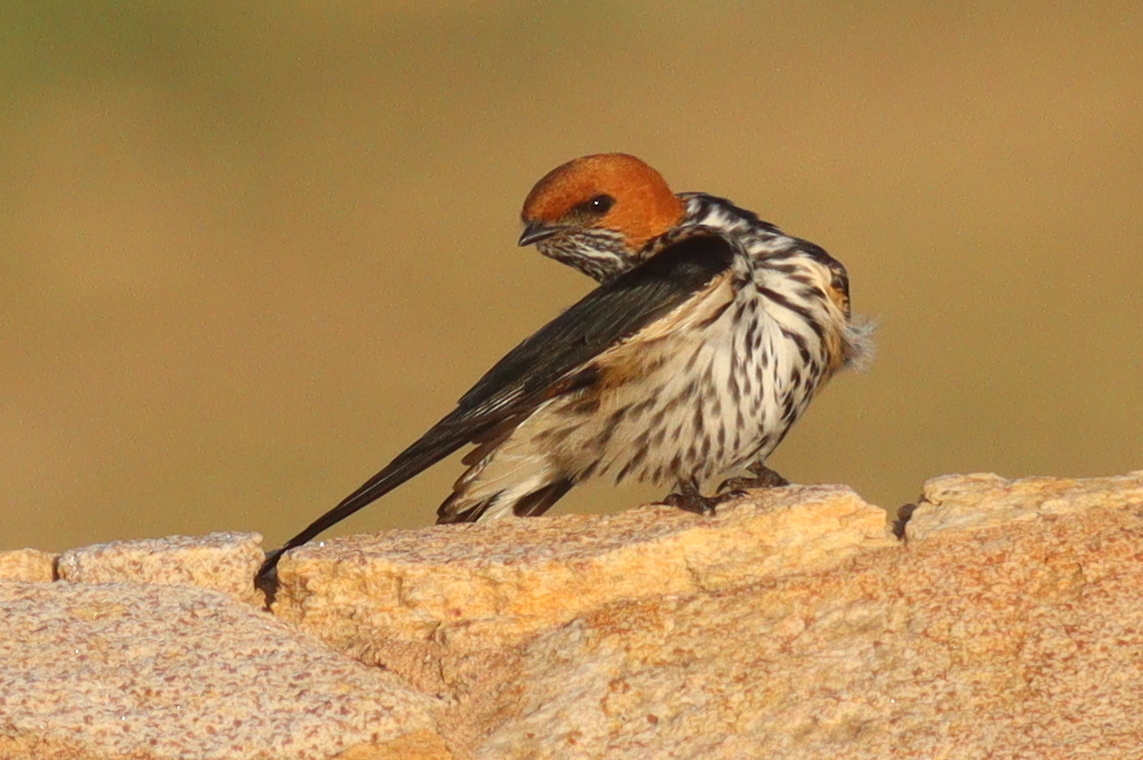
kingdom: Animalia
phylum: Chordata
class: Aves
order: Passeriformes
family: Hirundinidae
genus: Cecropis
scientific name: Cecropis abyssinica
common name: Lesser striped-swallow
